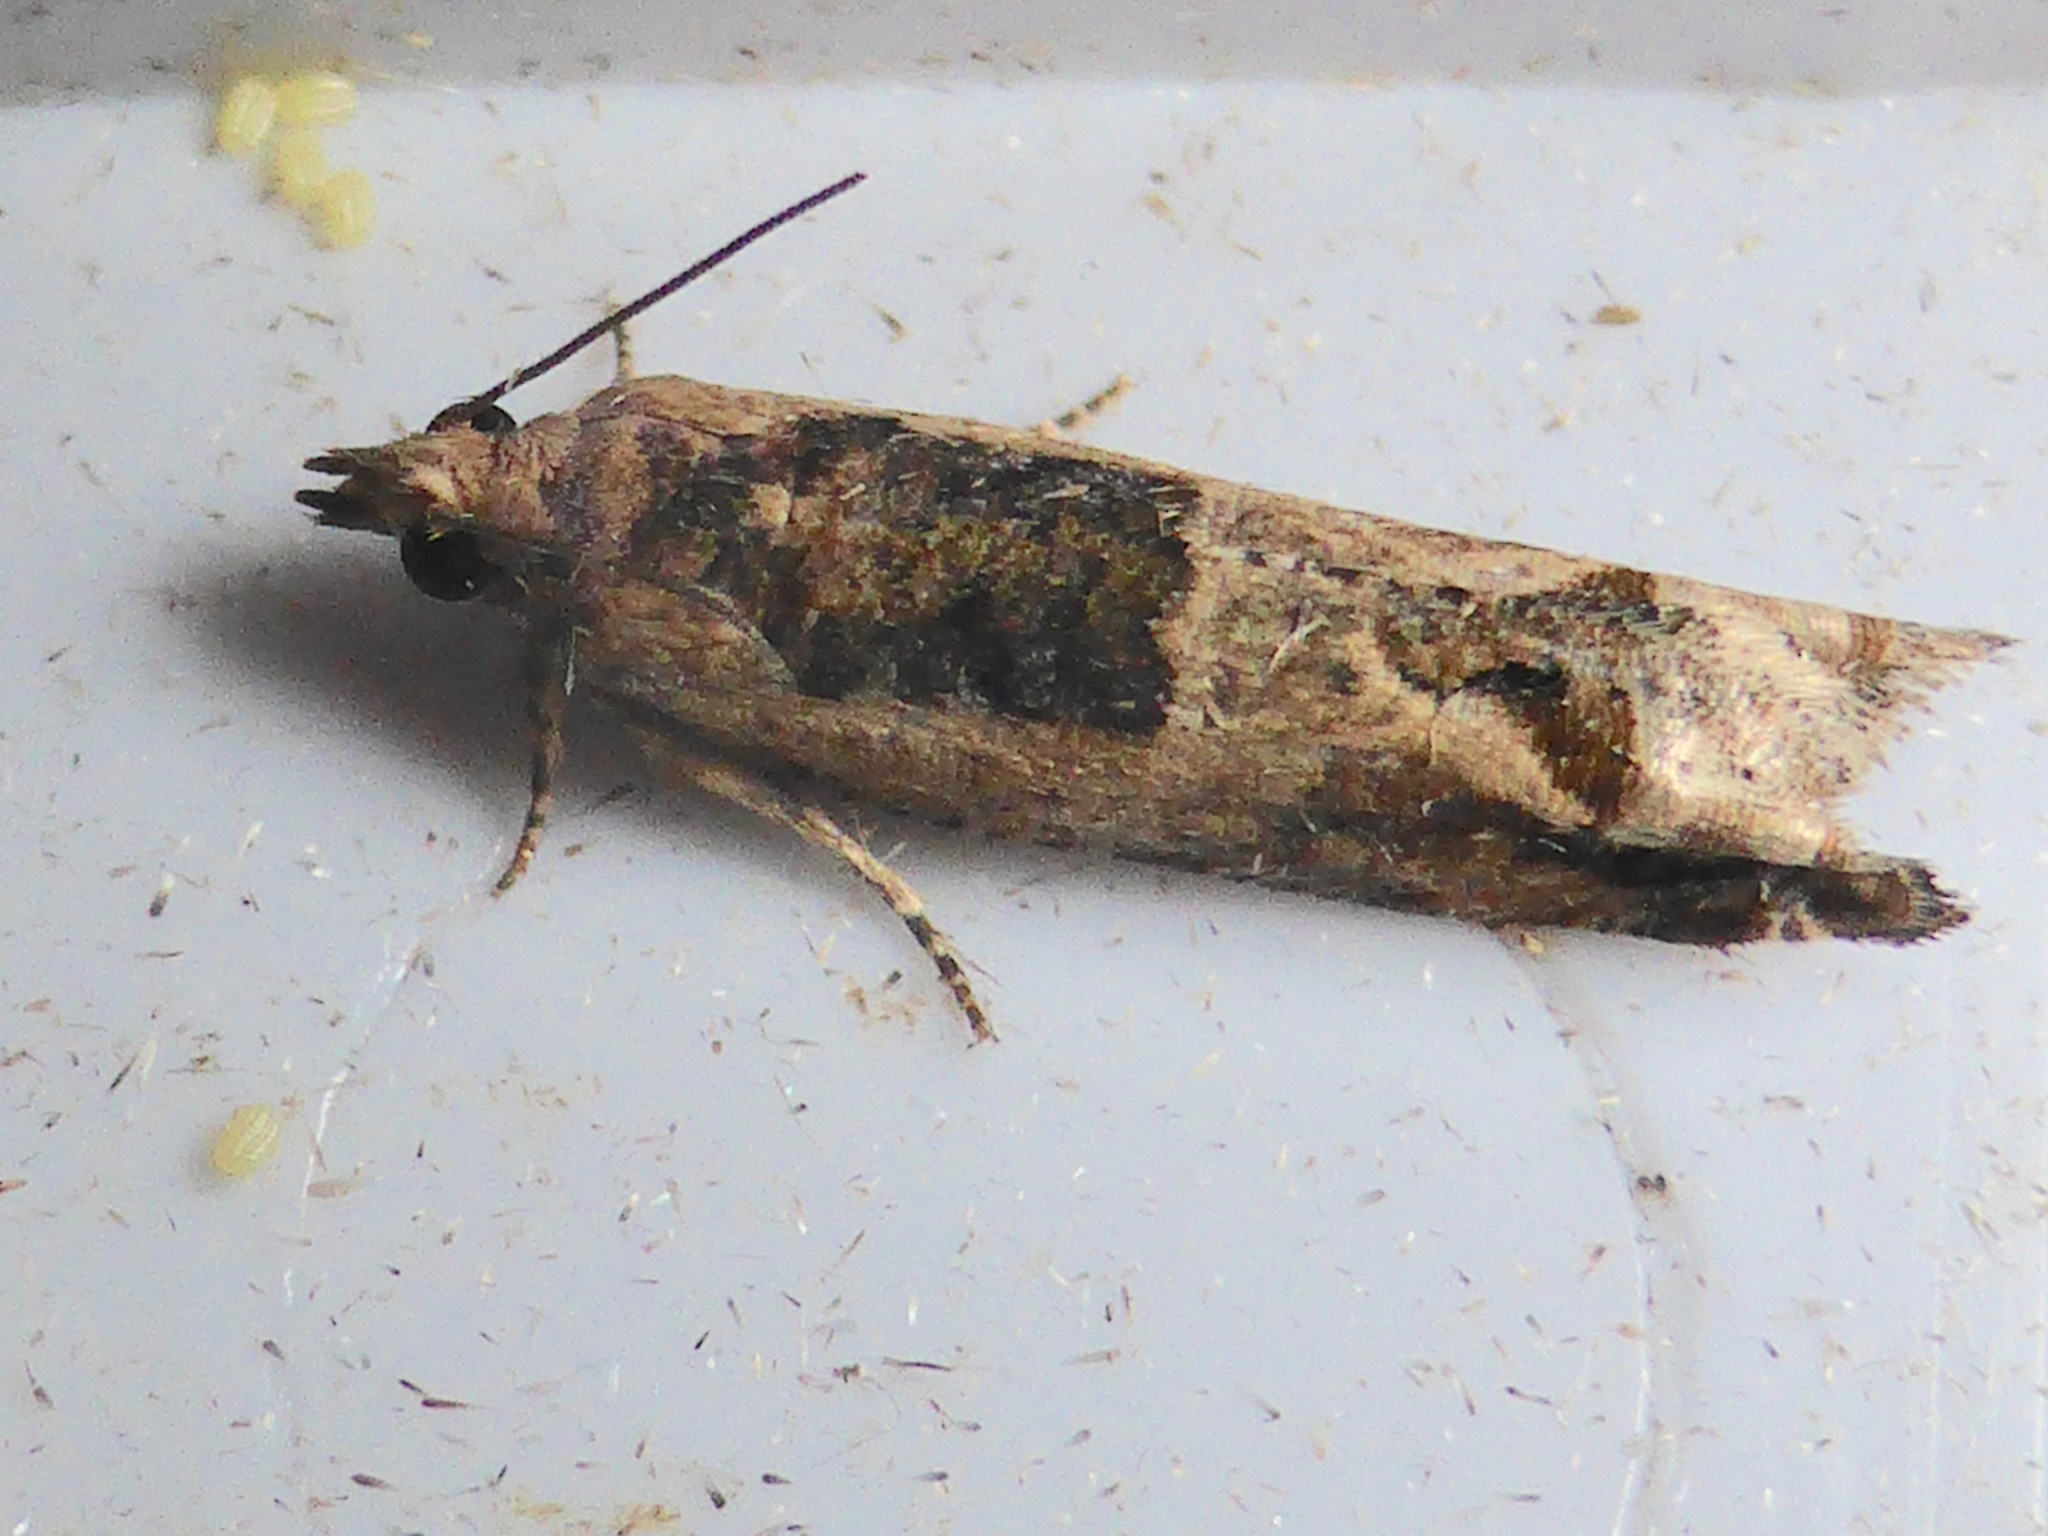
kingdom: Animalia
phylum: Arthropoda
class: Insecta
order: Lepidoptera
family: Tortricidae
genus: Crocidosema
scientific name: Crocidosema plebejana
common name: Southern bell
